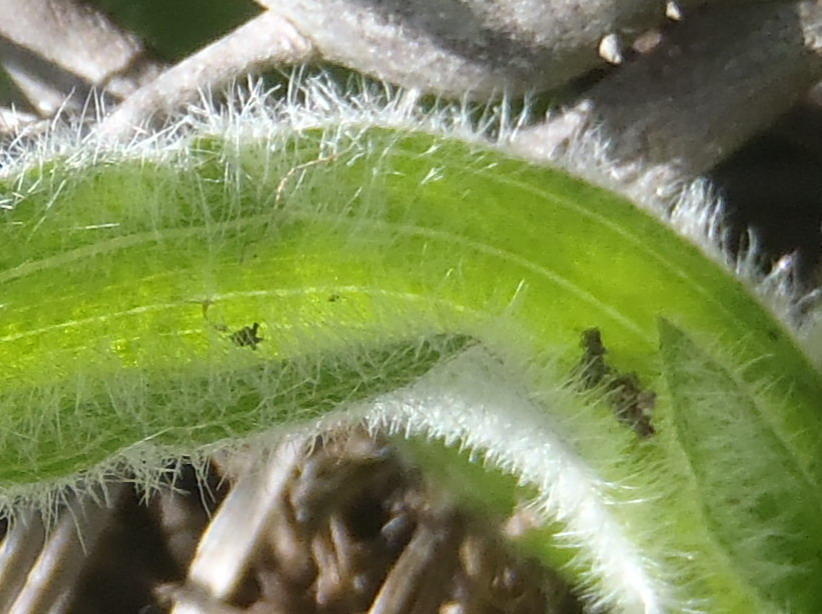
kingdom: Plantae
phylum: Tracheophyta
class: Liliopsida
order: Asparagales
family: Hypoxidaceae
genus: Hypoxis
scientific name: Hypoxis villosa
